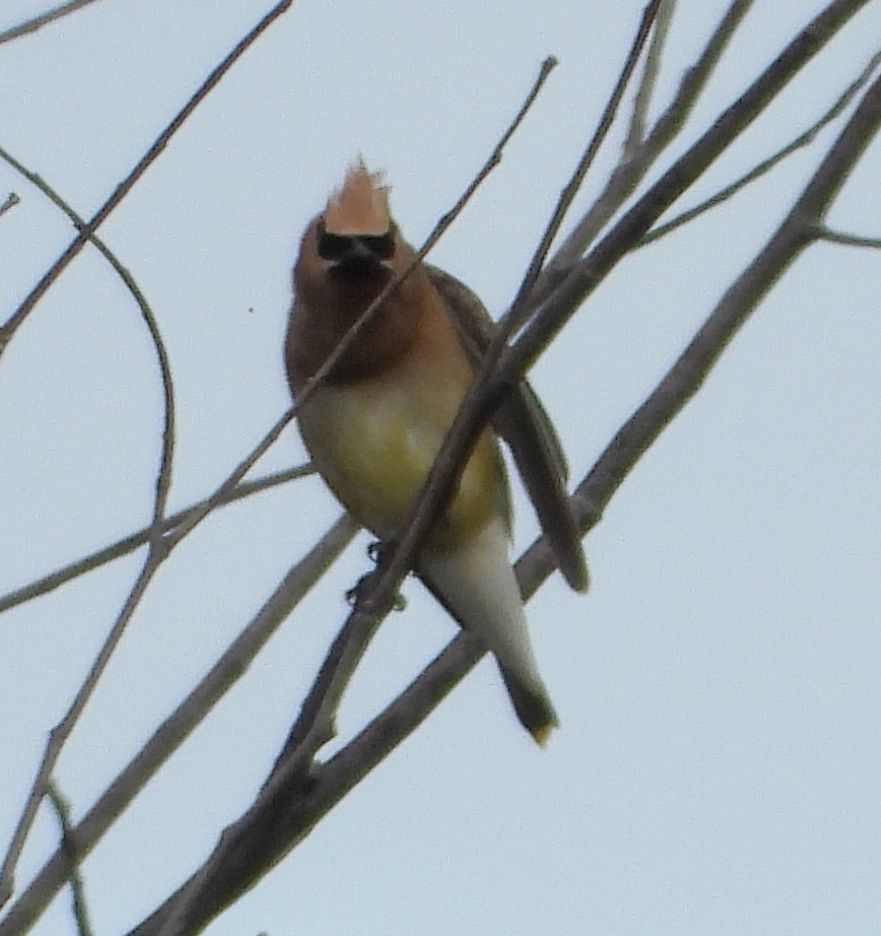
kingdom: Animalia
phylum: Chordata
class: Aves
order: Passeriformes
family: Bombycillidae
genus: Bombycilla
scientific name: Bombycilla cedrorum
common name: Cedar waxwing
